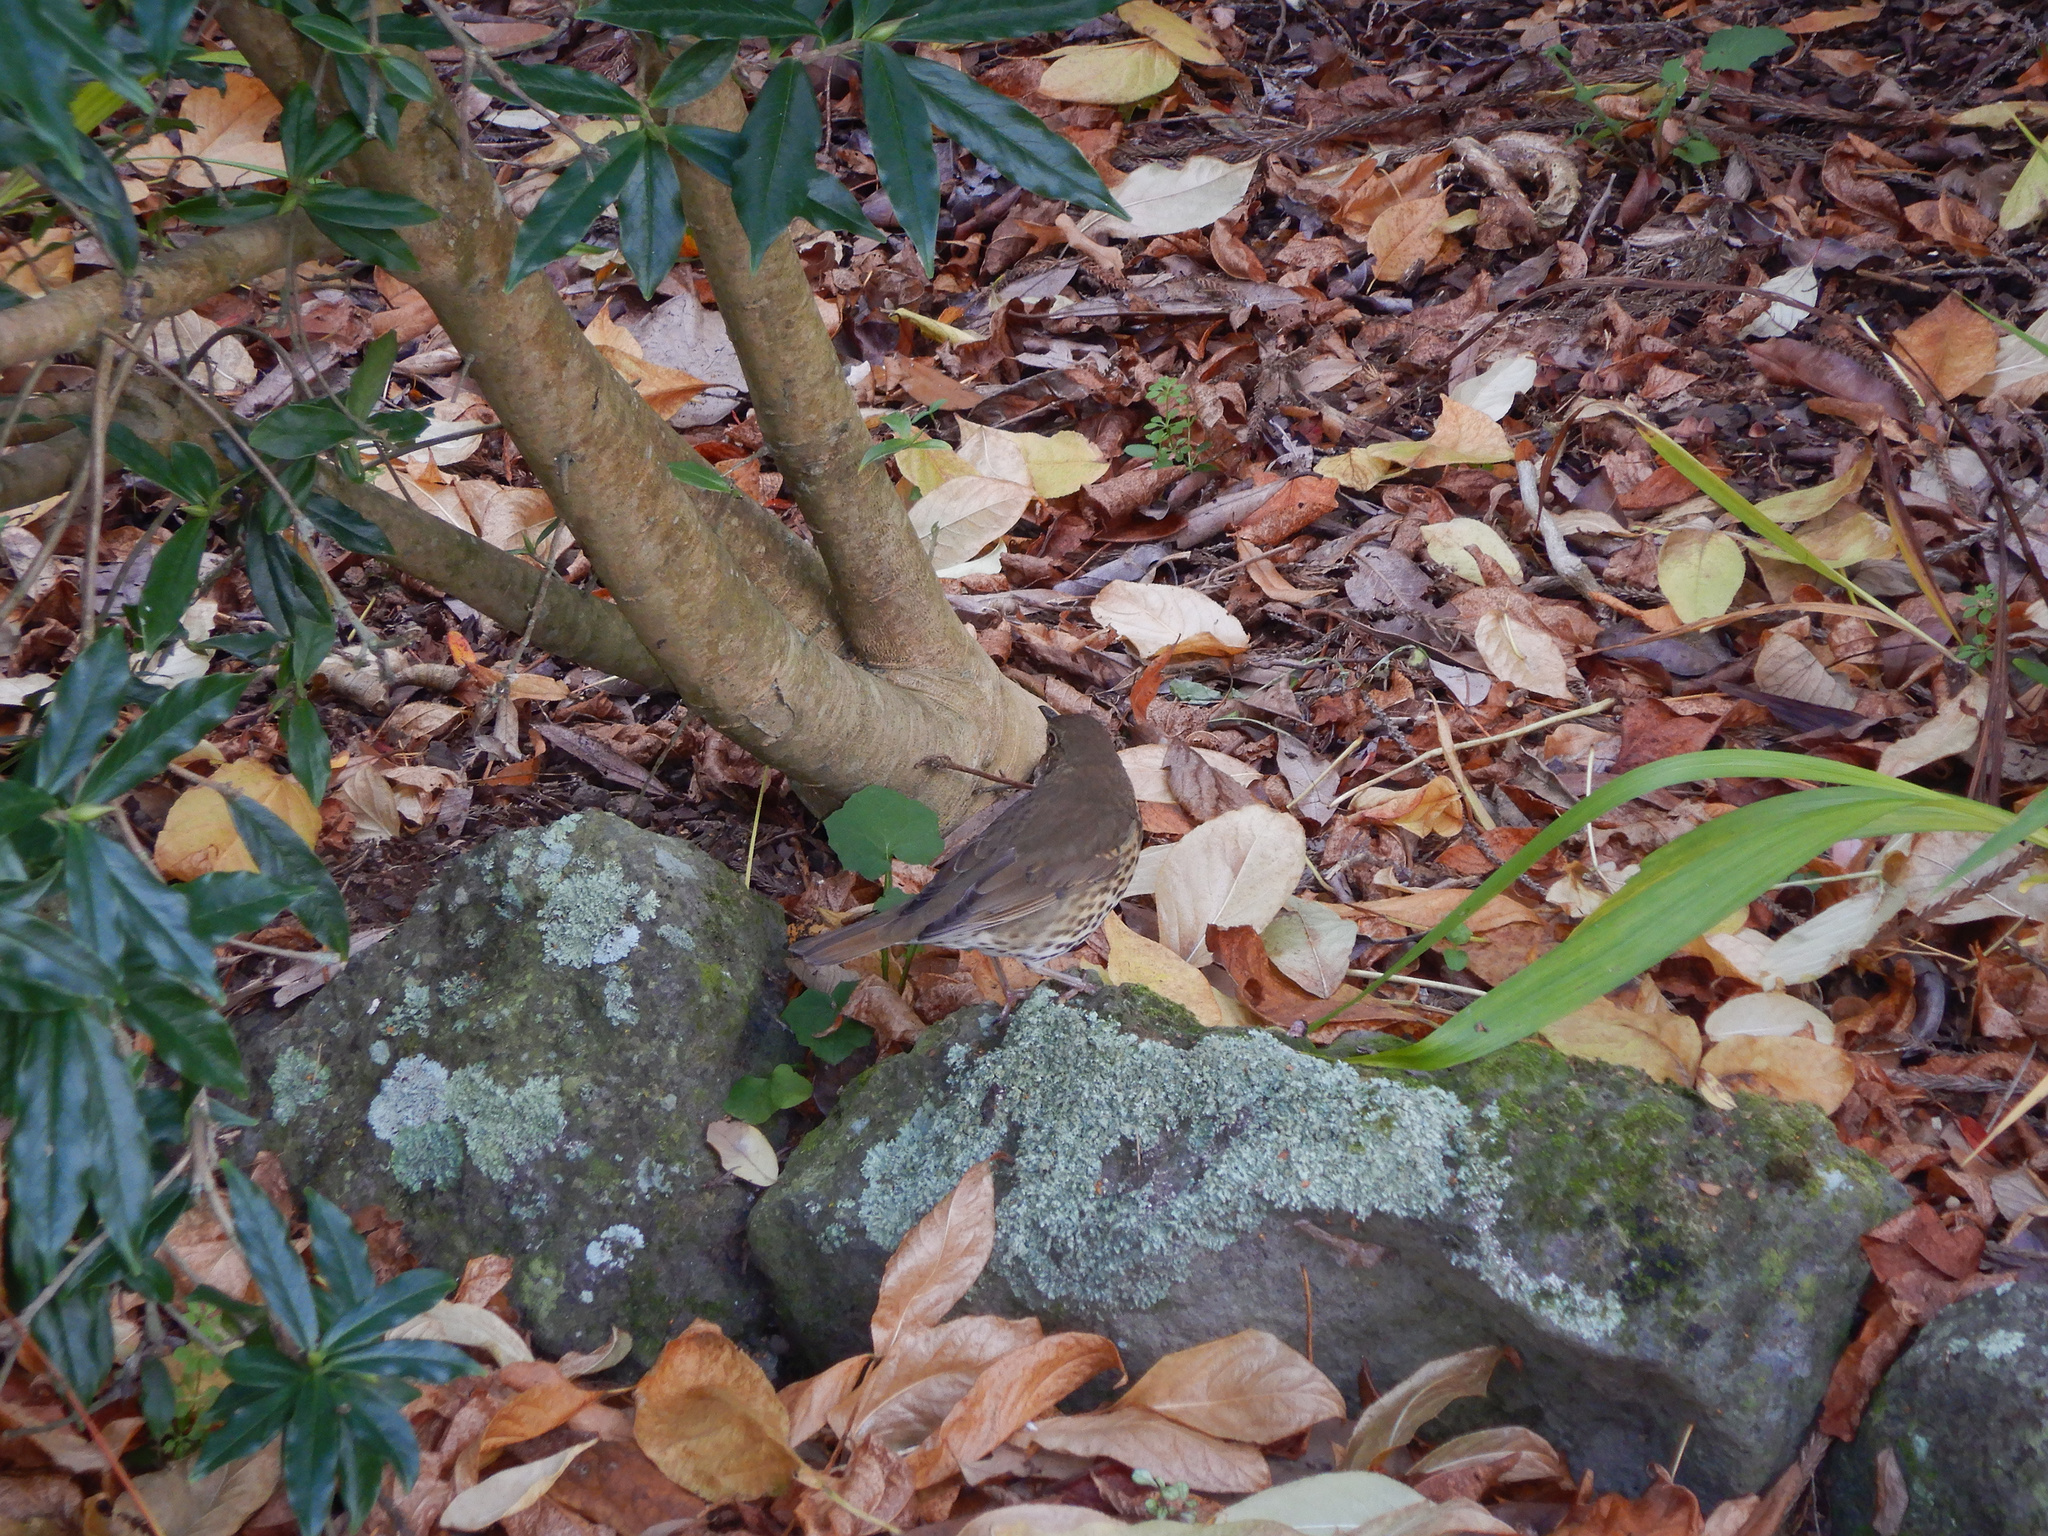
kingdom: Animalia
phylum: Chordata
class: Aves
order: Passeriformes
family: Turdidae
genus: Turdus
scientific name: Turdus philomelos
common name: Song thrush
